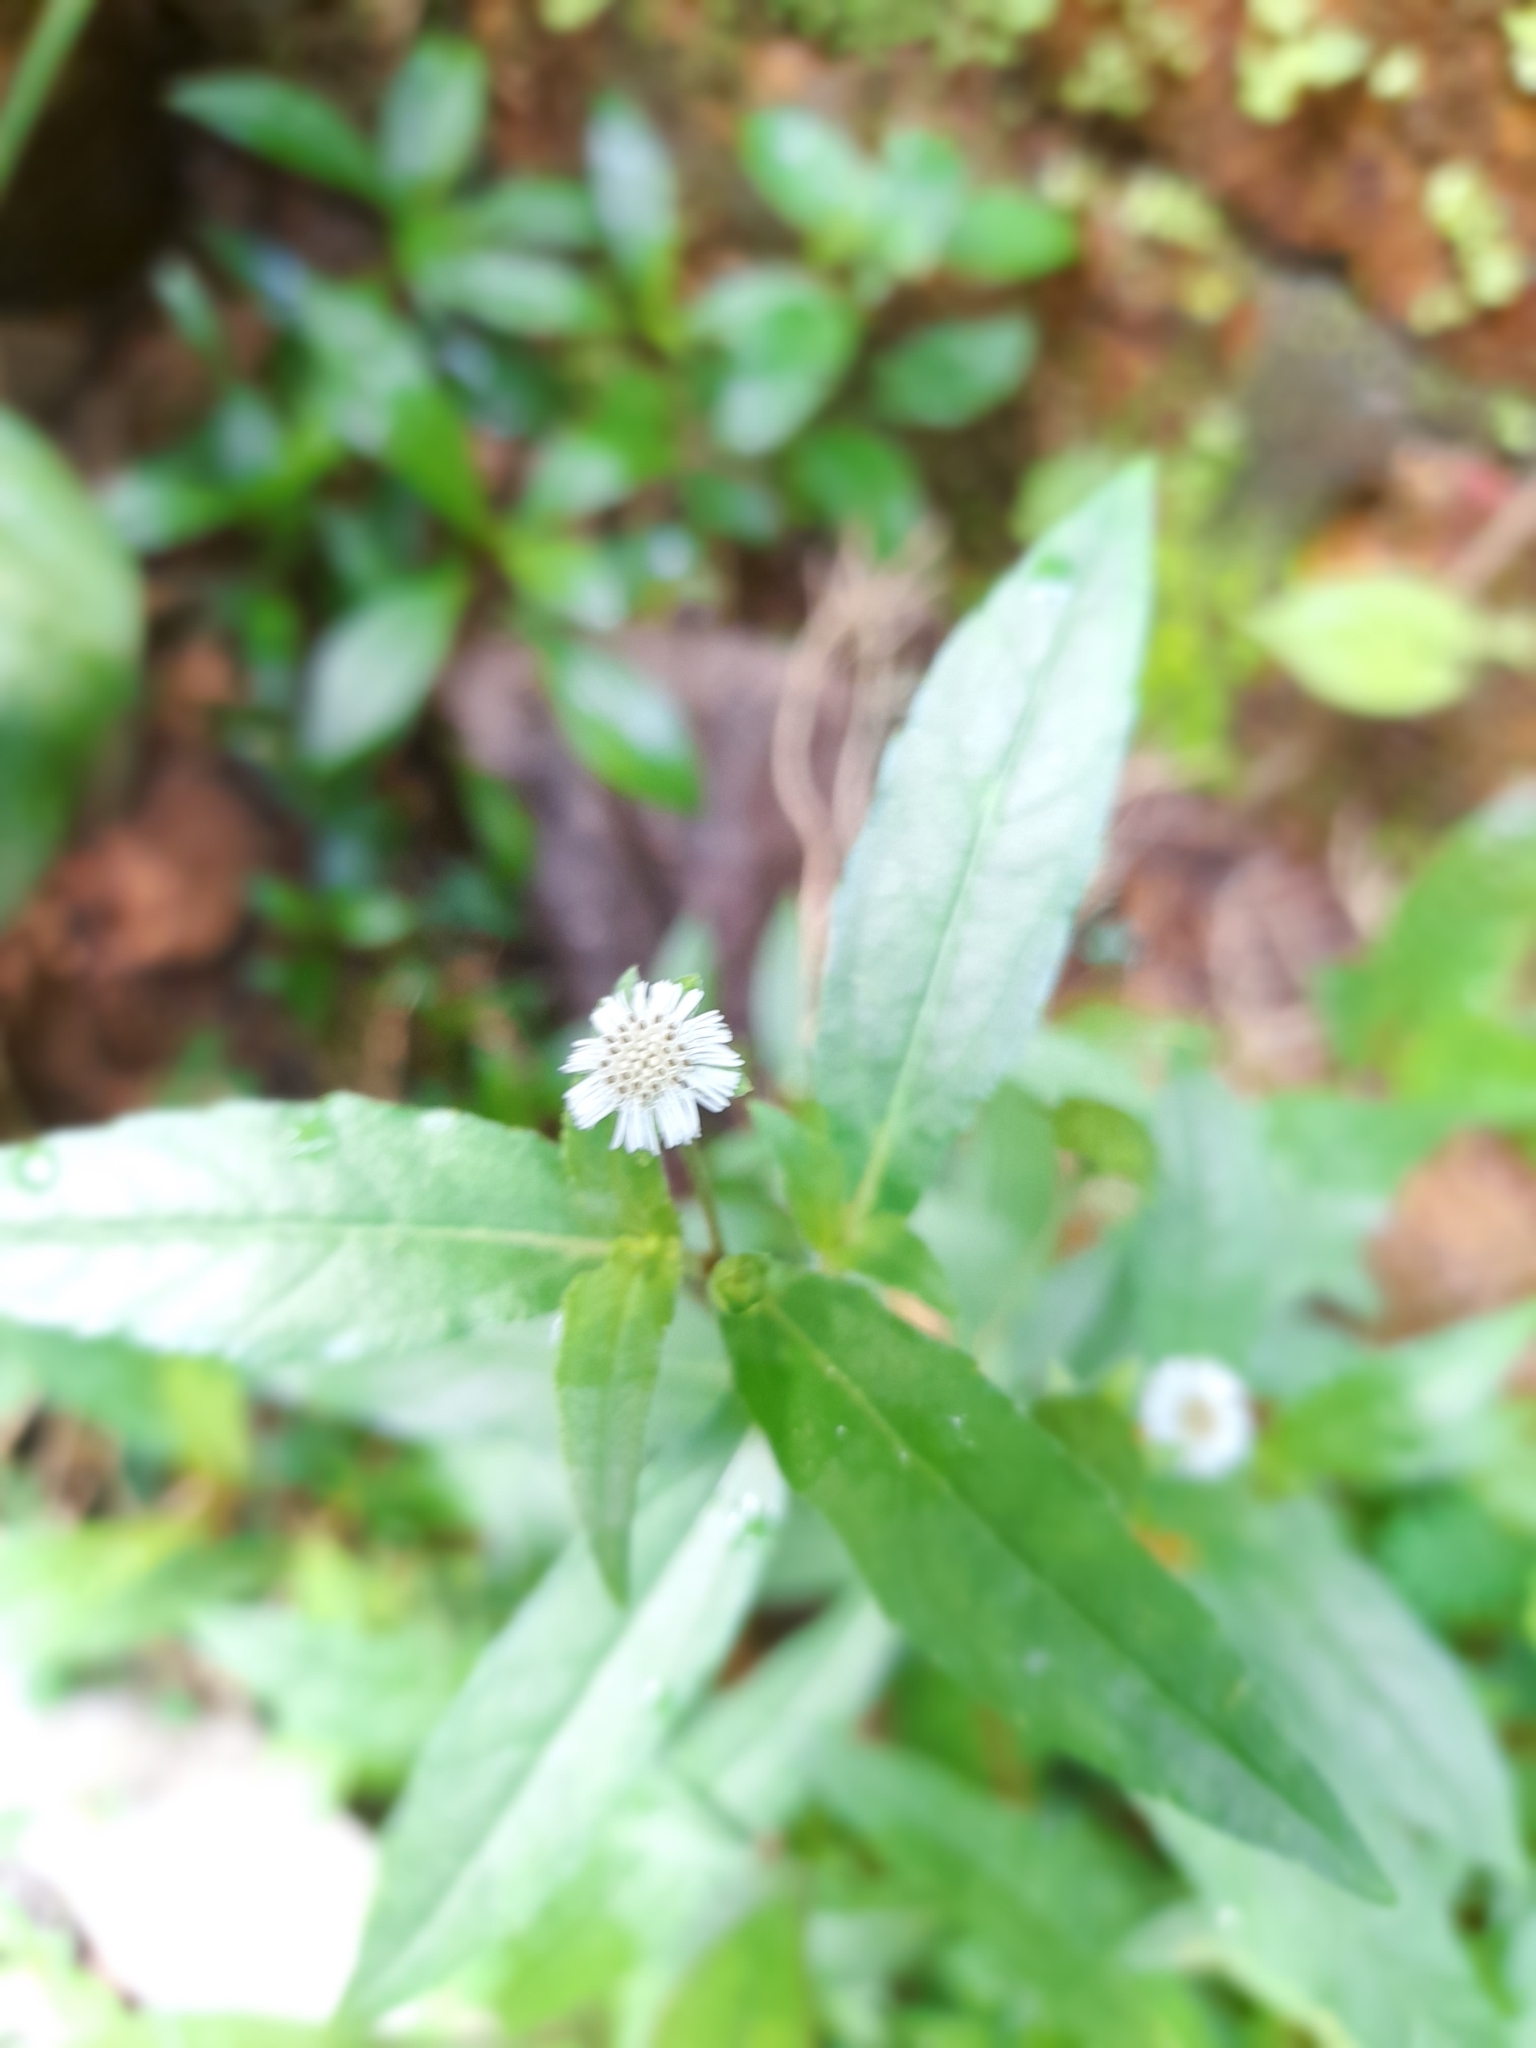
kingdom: Plantae
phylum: Tracheophyta
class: Magnoliopsida
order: Asterales
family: Asteraceae
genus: Eclipta
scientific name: Eclipta prostrata
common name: False daisy
